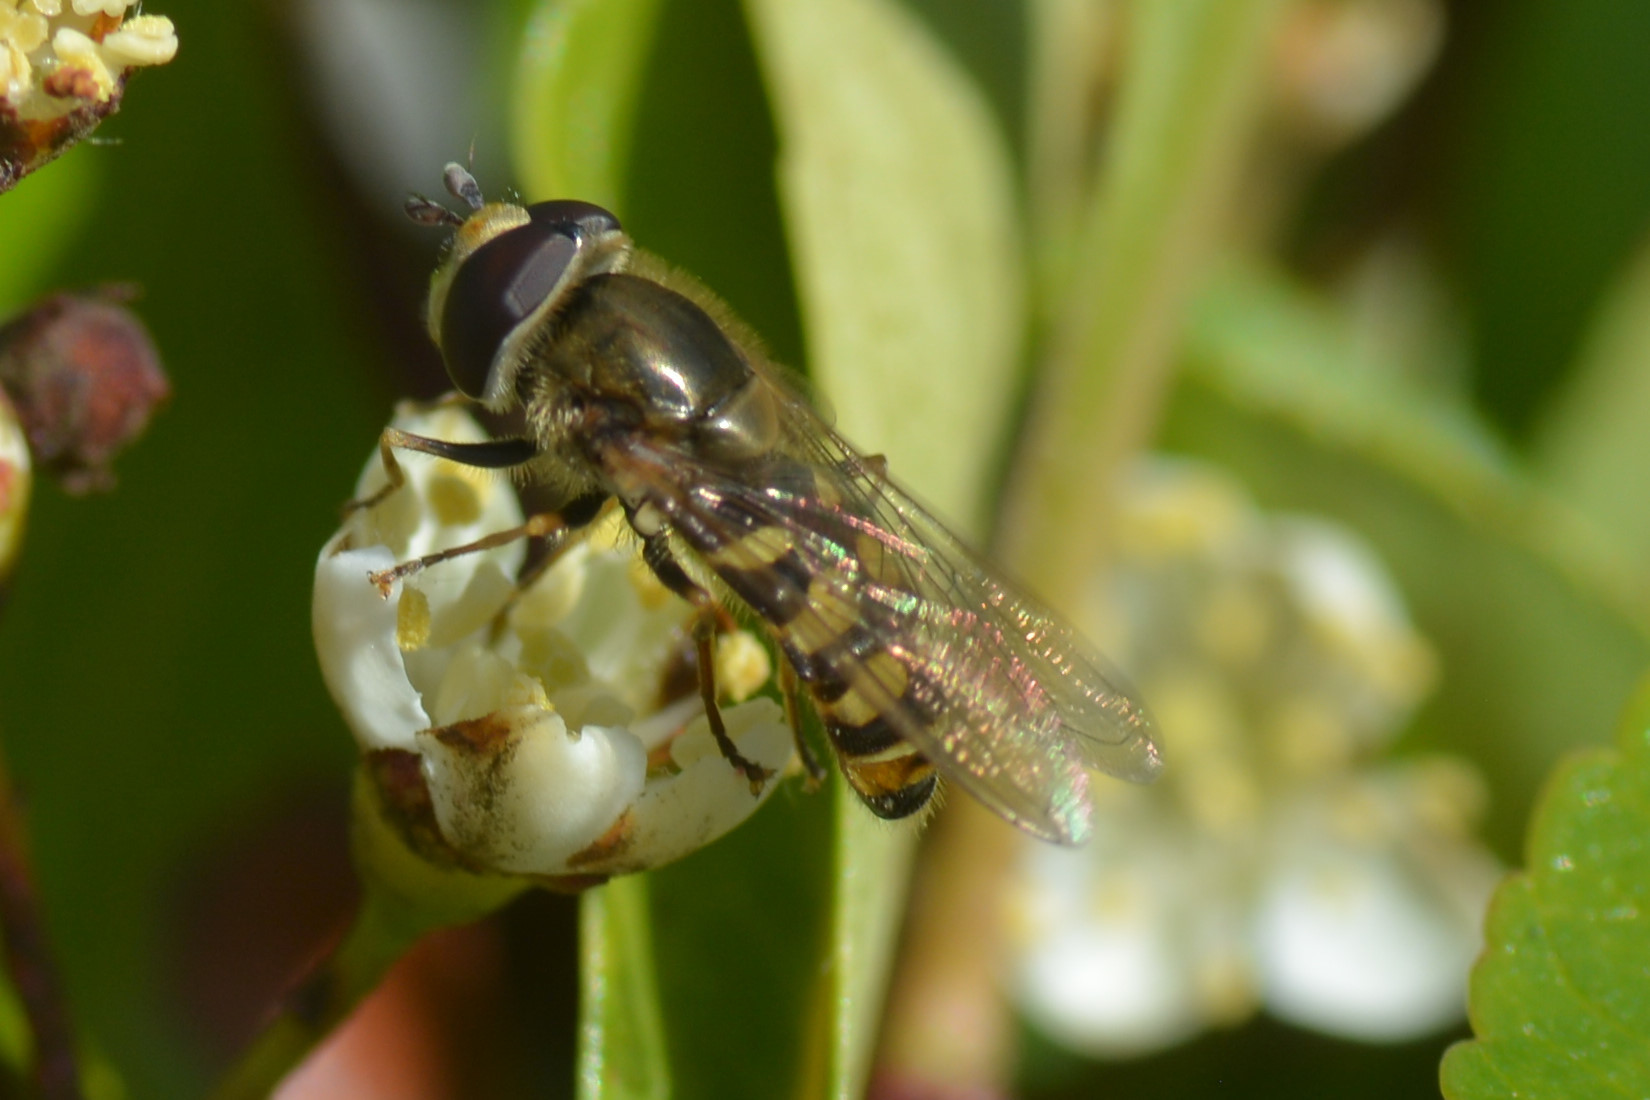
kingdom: Animalia
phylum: Arthropoda
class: Insecta
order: Diptera
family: Syrphidae
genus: Eupeodes
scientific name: Eupeodes corollae
